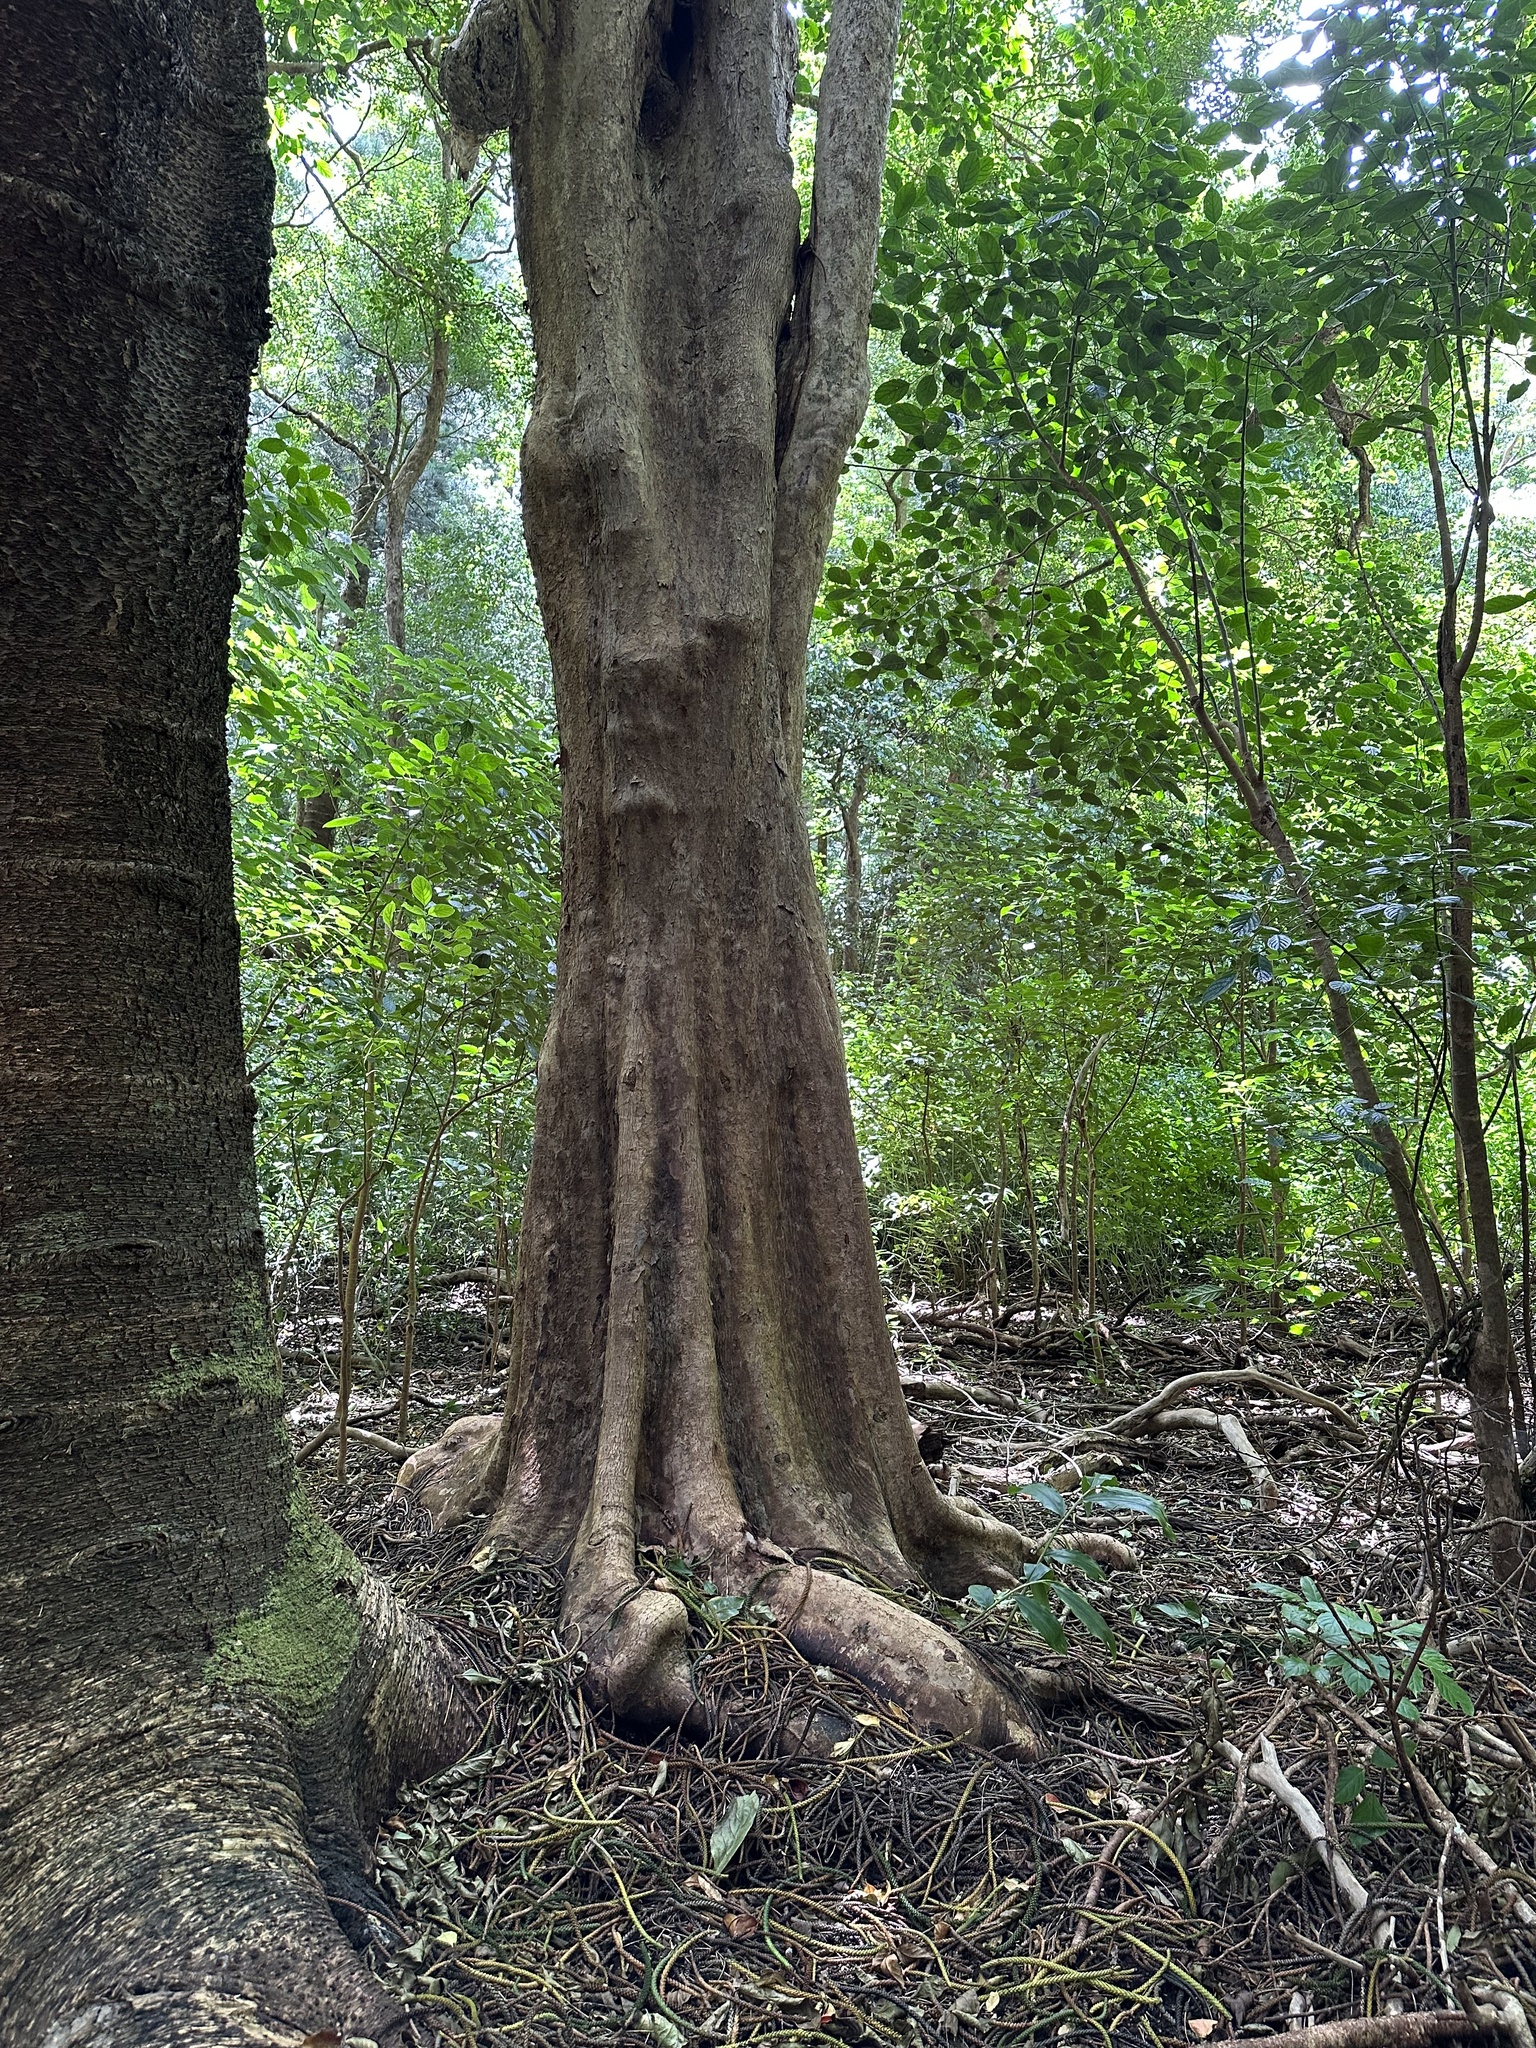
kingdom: Plantae
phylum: Tracheophyta
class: Magnoliopsida
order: Malpighiales
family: Phyllanthaceae
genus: Bischofia
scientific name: Bischofia javanica
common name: Javanese bishopwood
